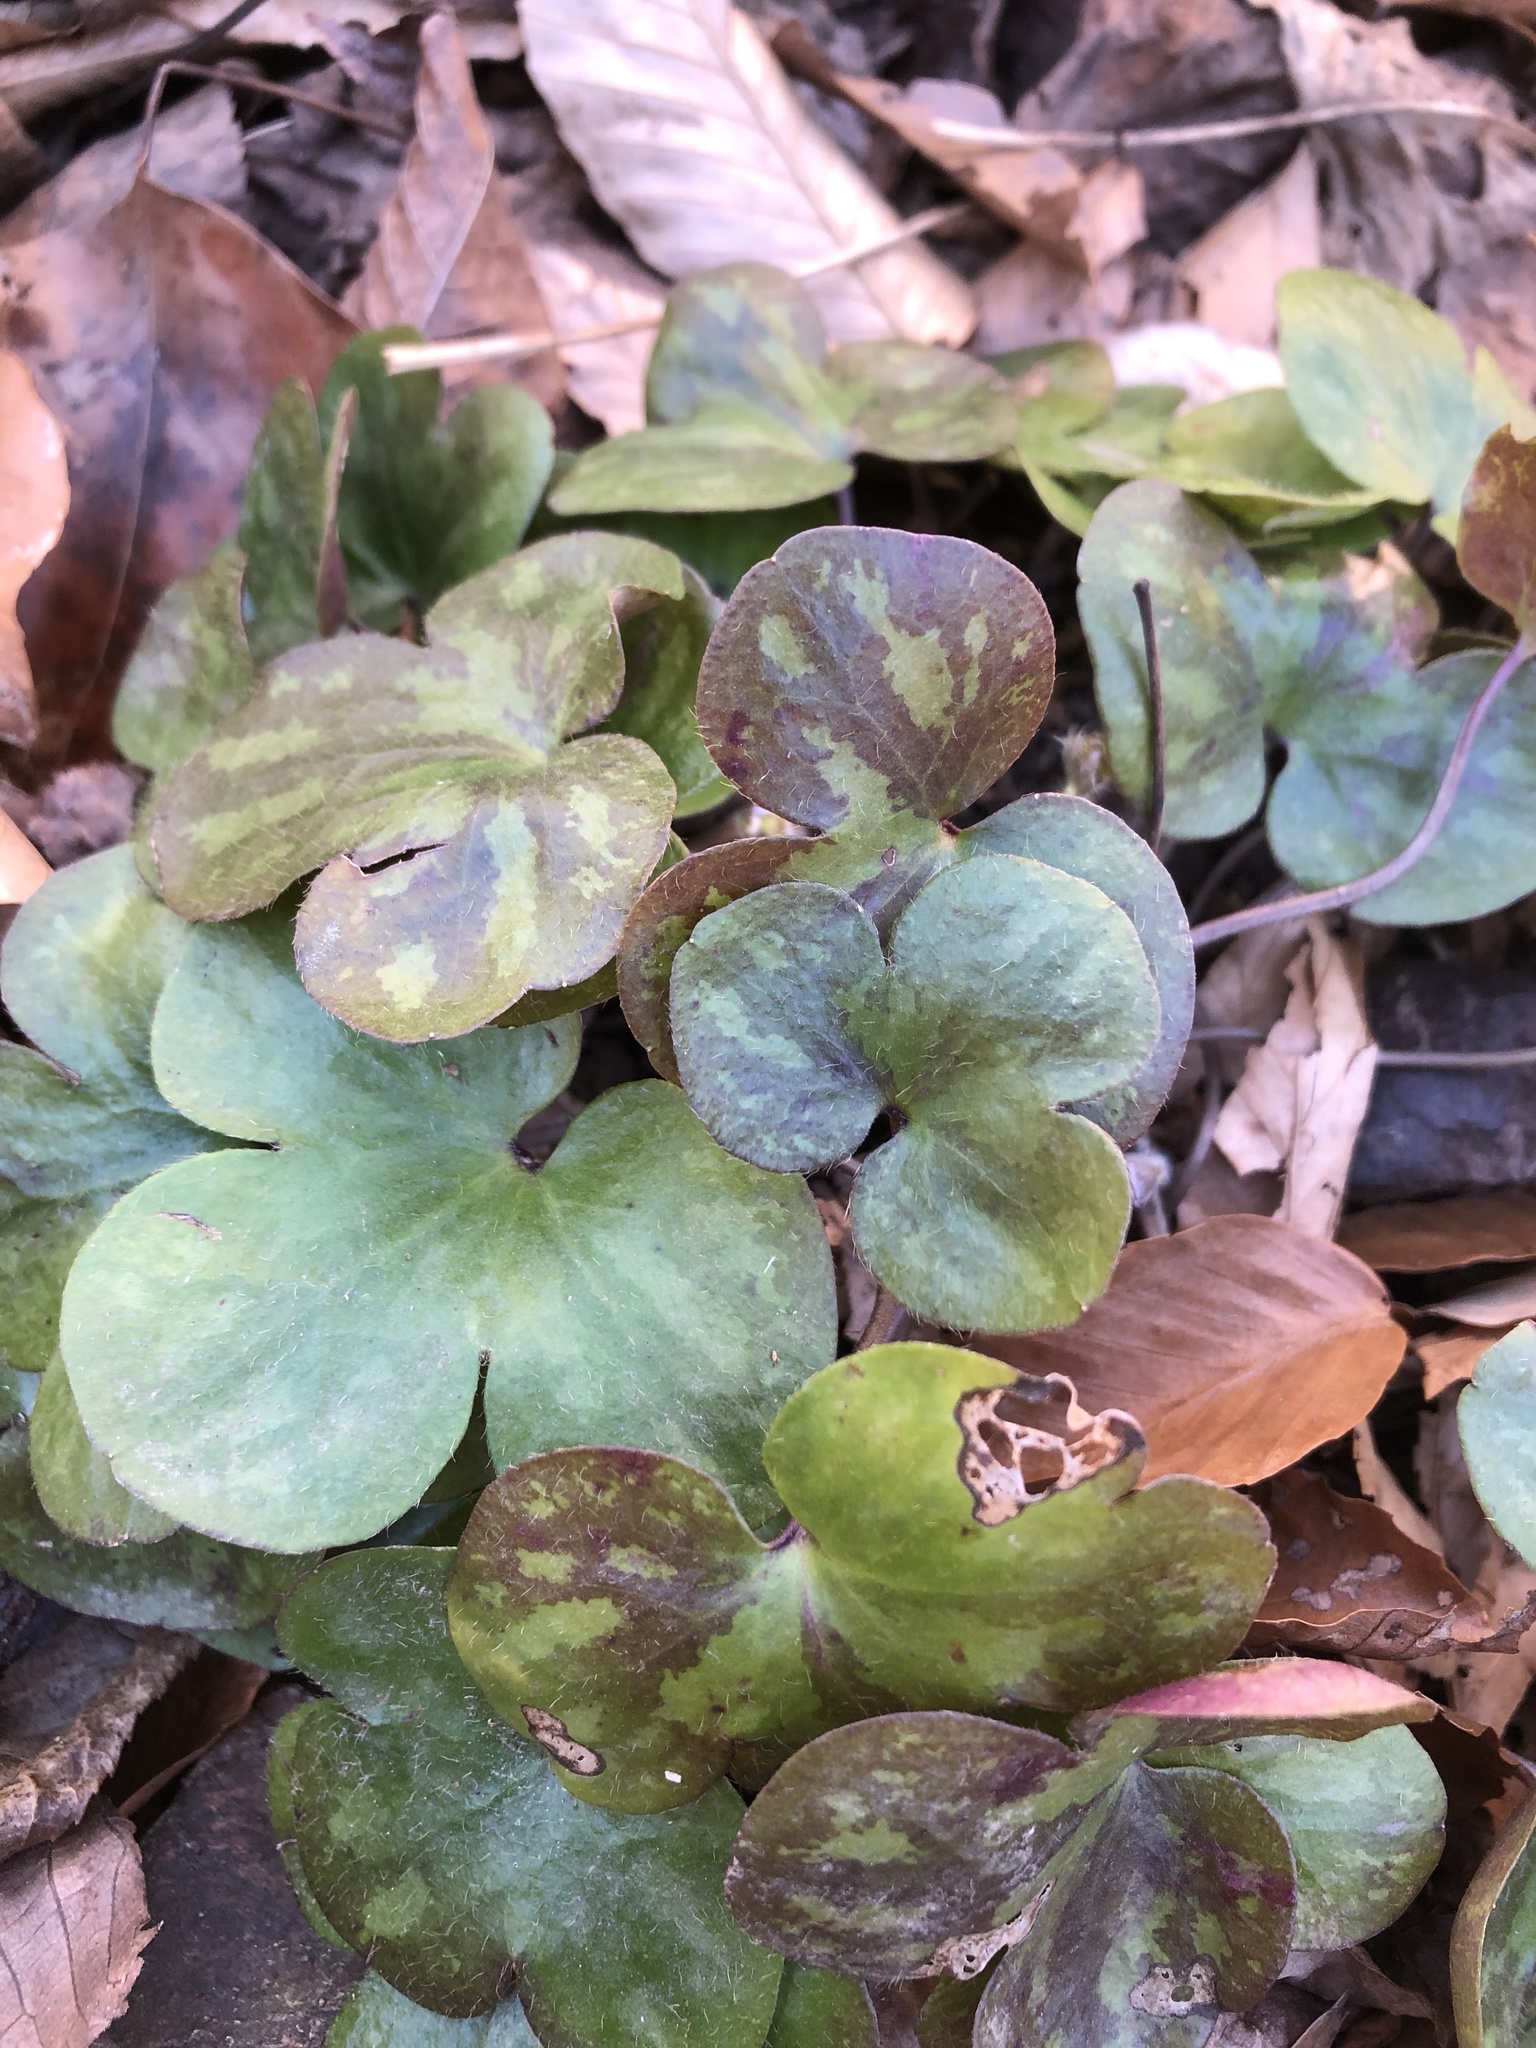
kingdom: Plantae
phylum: Tracheophyta
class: Magnoliopsida
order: Ranunculales
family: Ranunculaceae
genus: Hepatica
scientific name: Hepatica americana
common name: American hepatica
